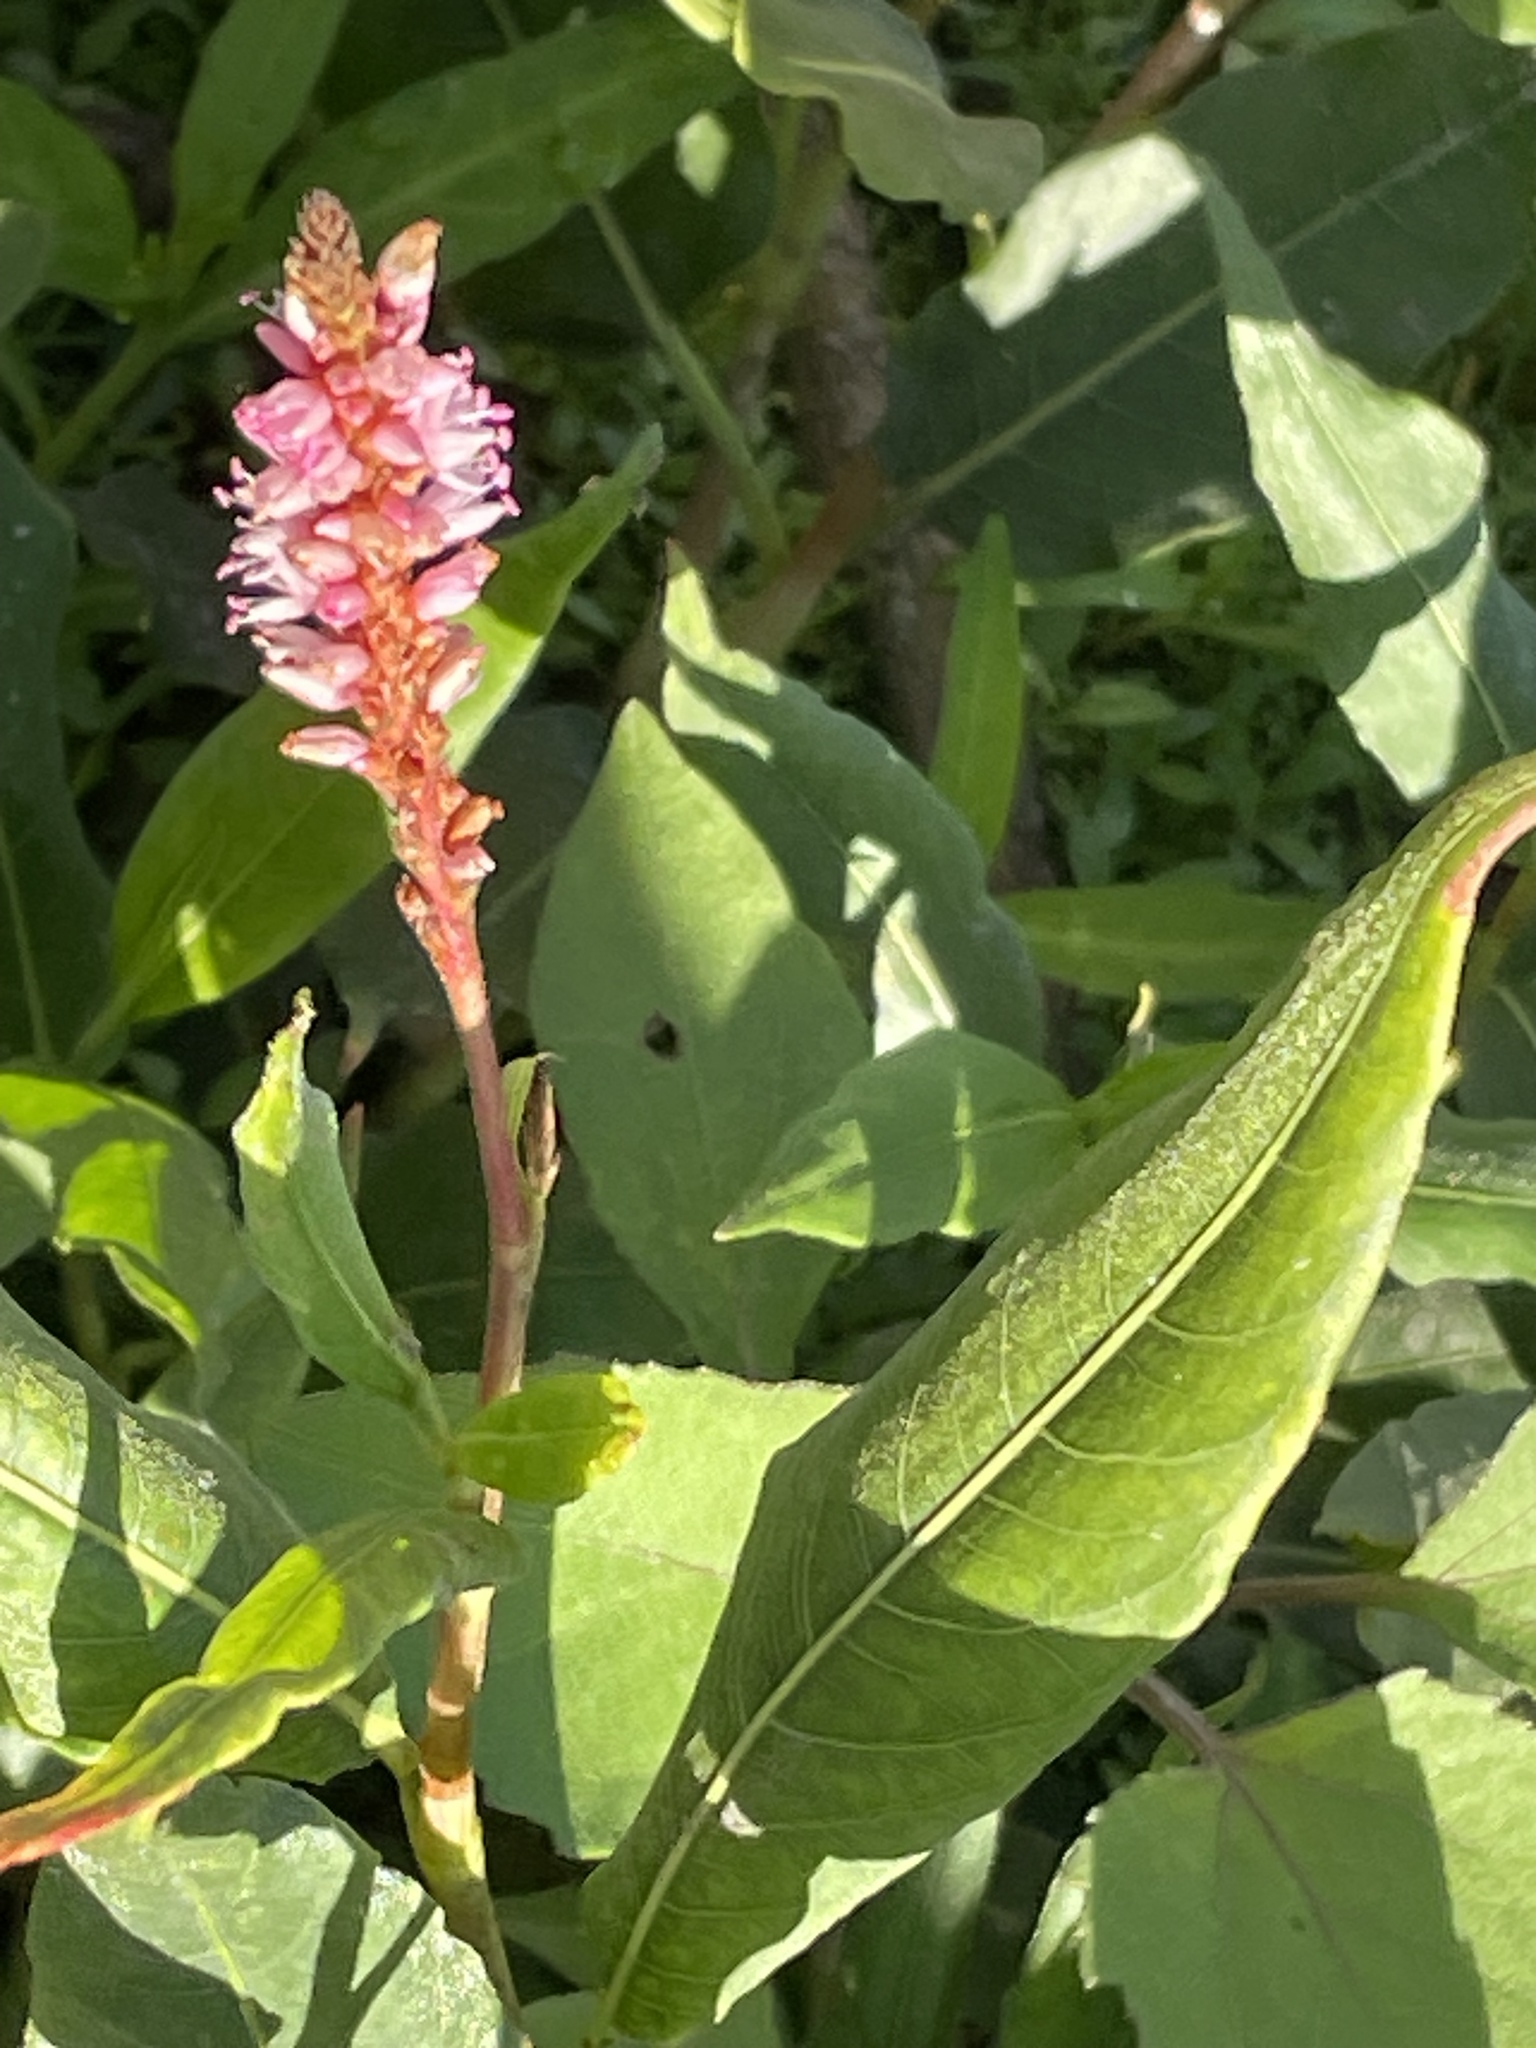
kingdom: Plantae
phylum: Tracheophyta
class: Magnoliopsida
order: Caryophyllales
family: Polygonaceae
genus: Persicaria
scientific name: Persicaria amphibia
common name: Amphibious bistort
